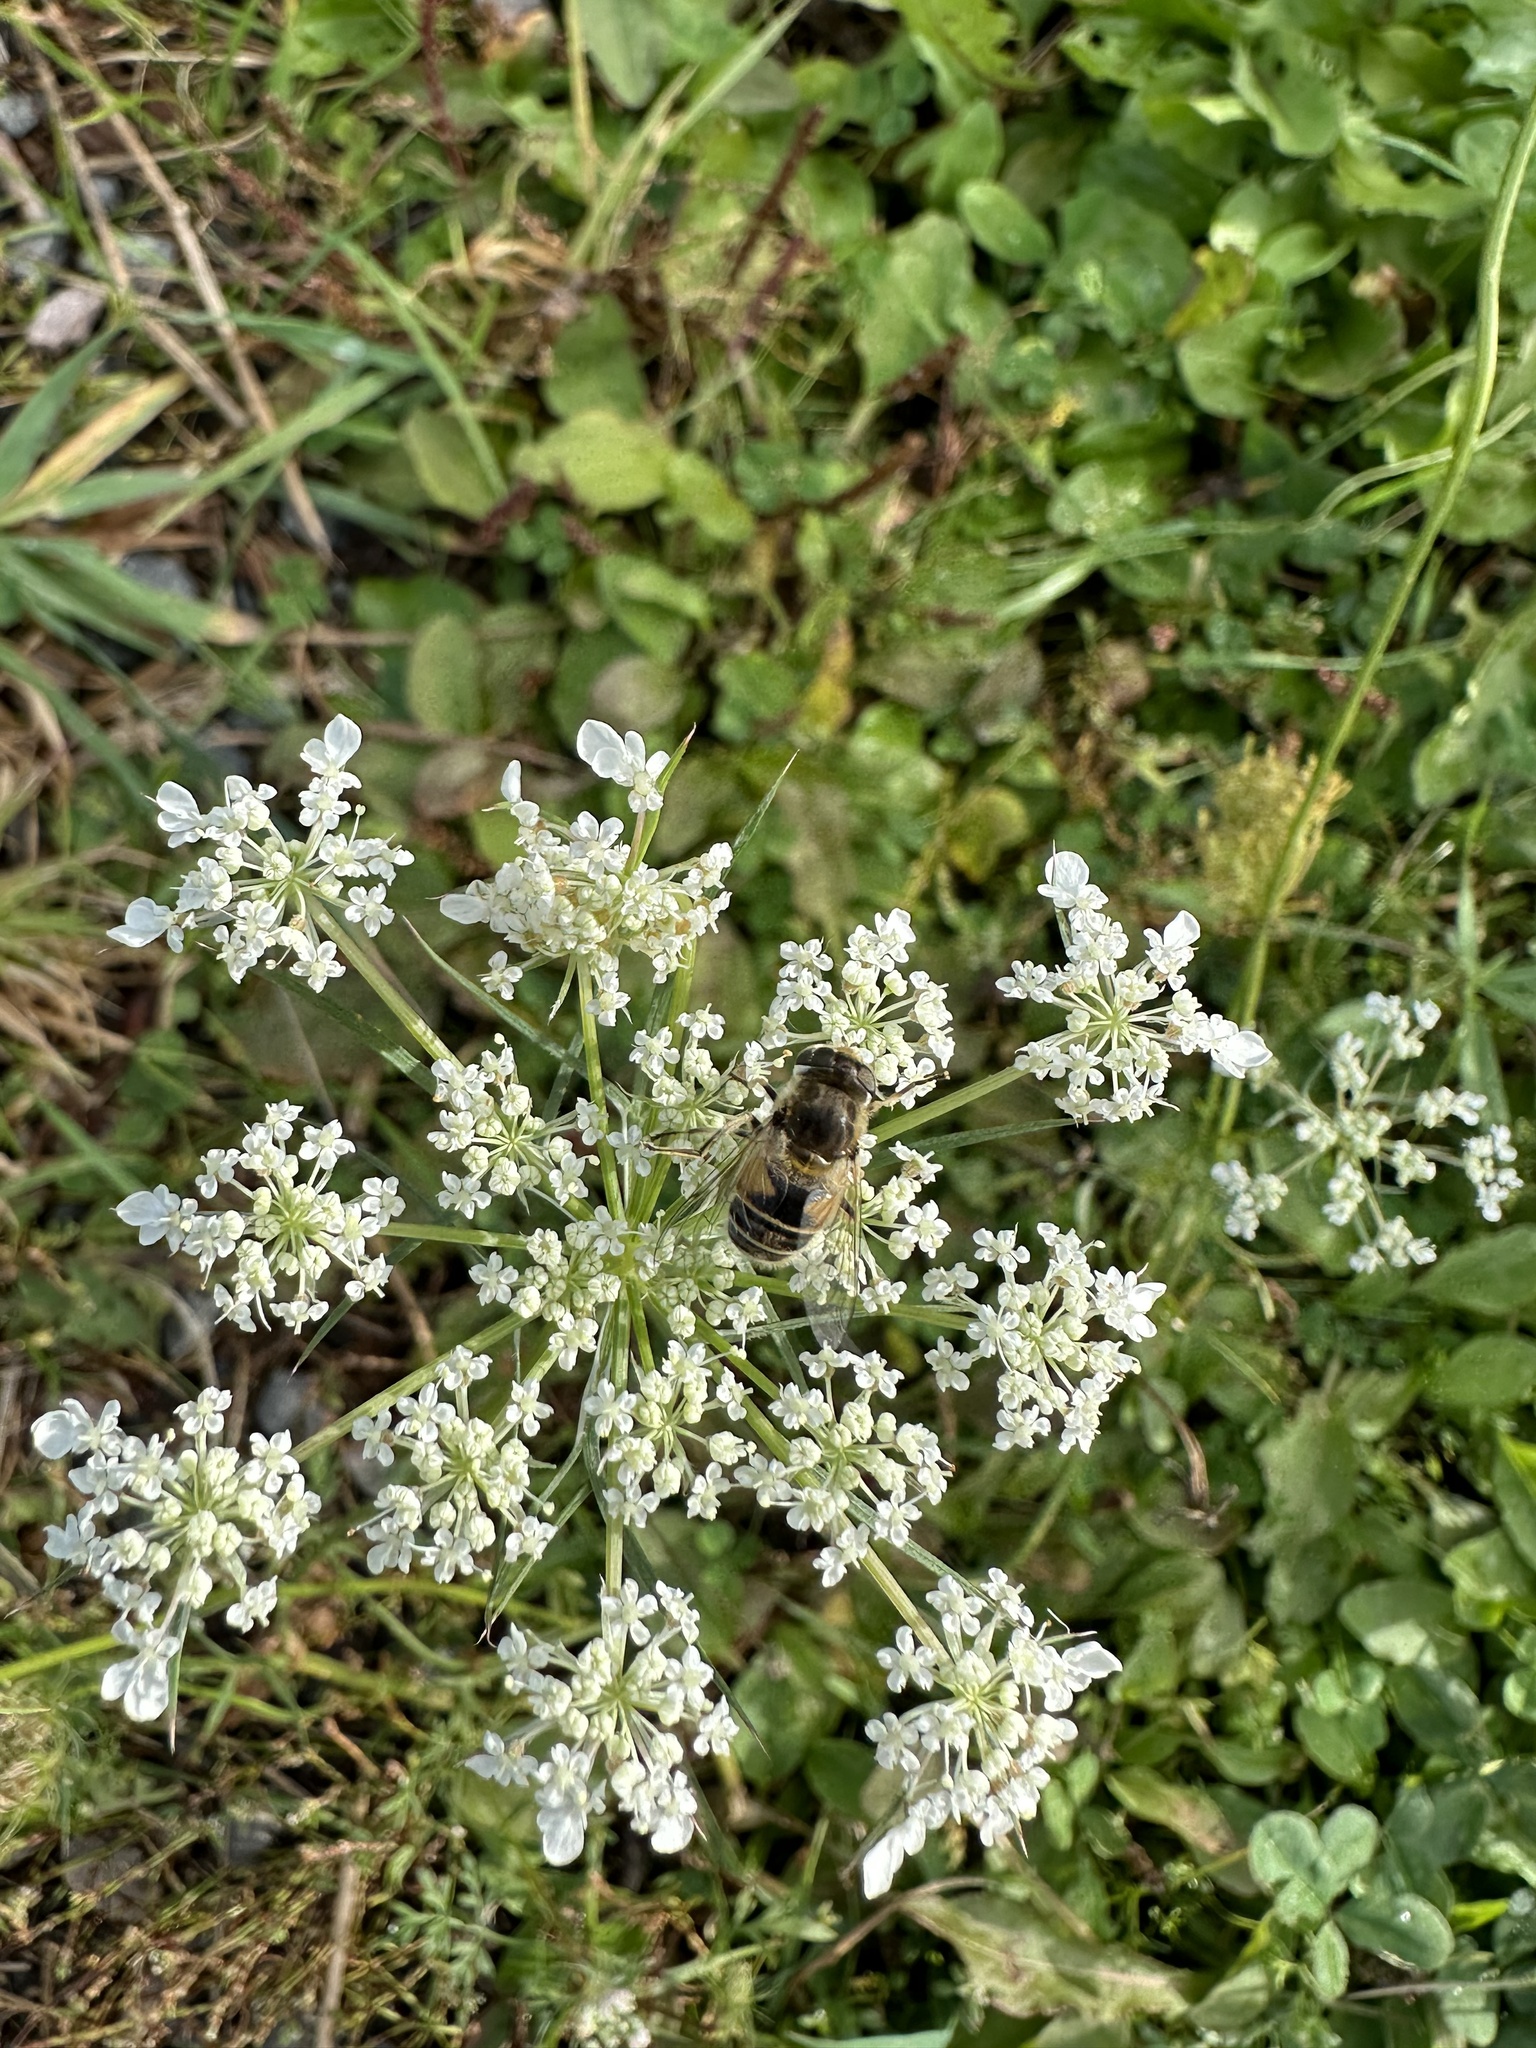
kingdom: Plantae
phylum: Tracheophyta
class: Magnoliopsida
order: Apiales
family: Apiaceae
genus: Daucus
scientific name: Daucus carota
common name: Wild carrot
